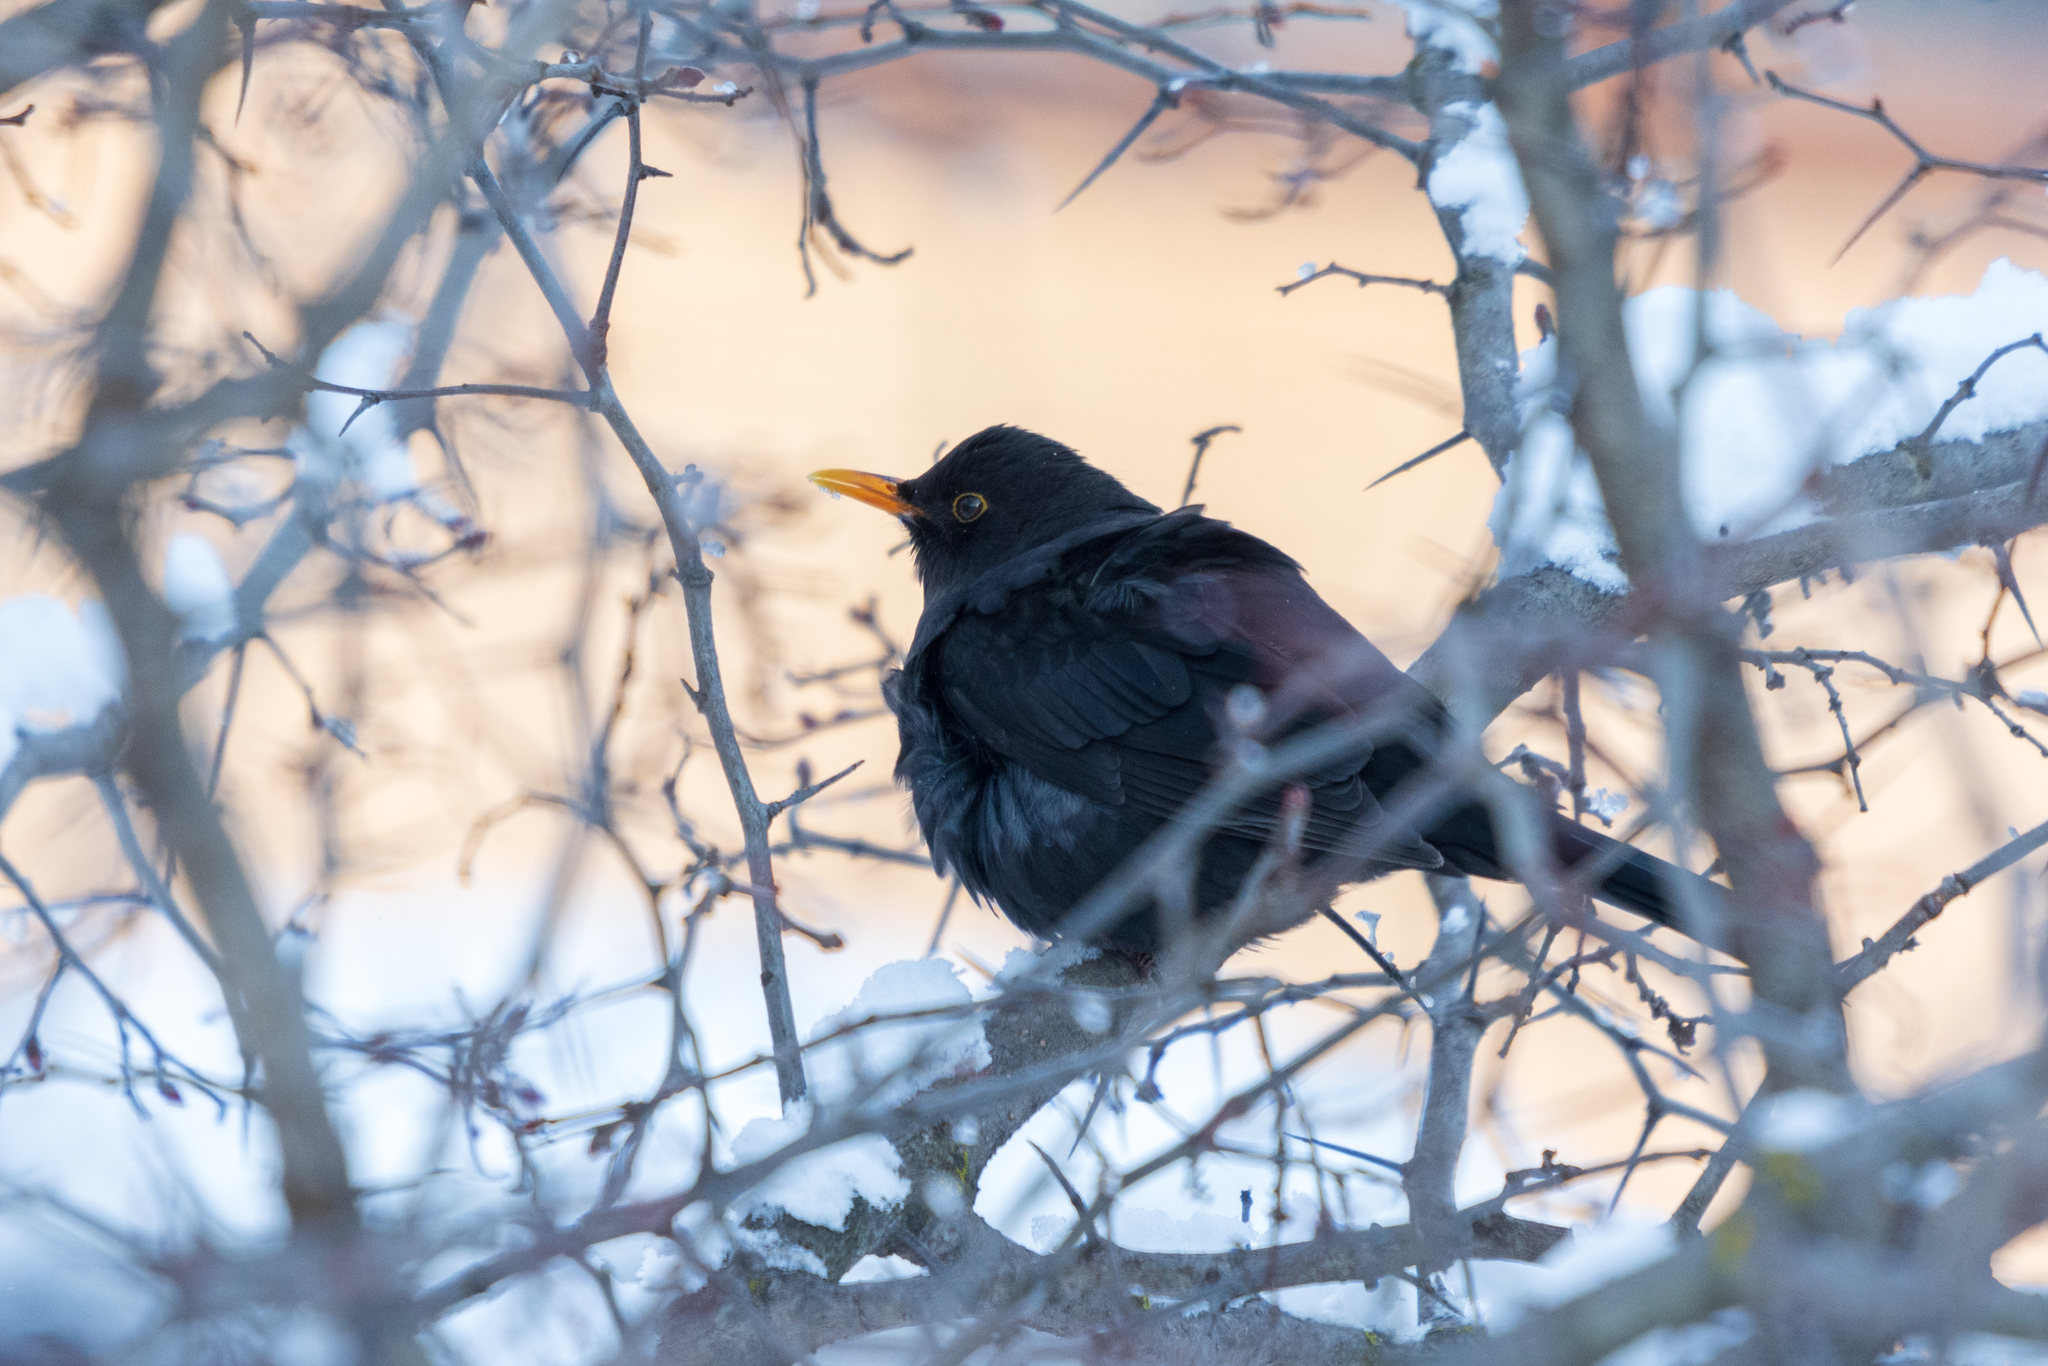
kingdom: Animalia
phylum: Chordata
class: Aves
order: Passeriformes
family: Turdidae
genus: Turdus
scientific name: Turdus merula
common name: Common blackbird
